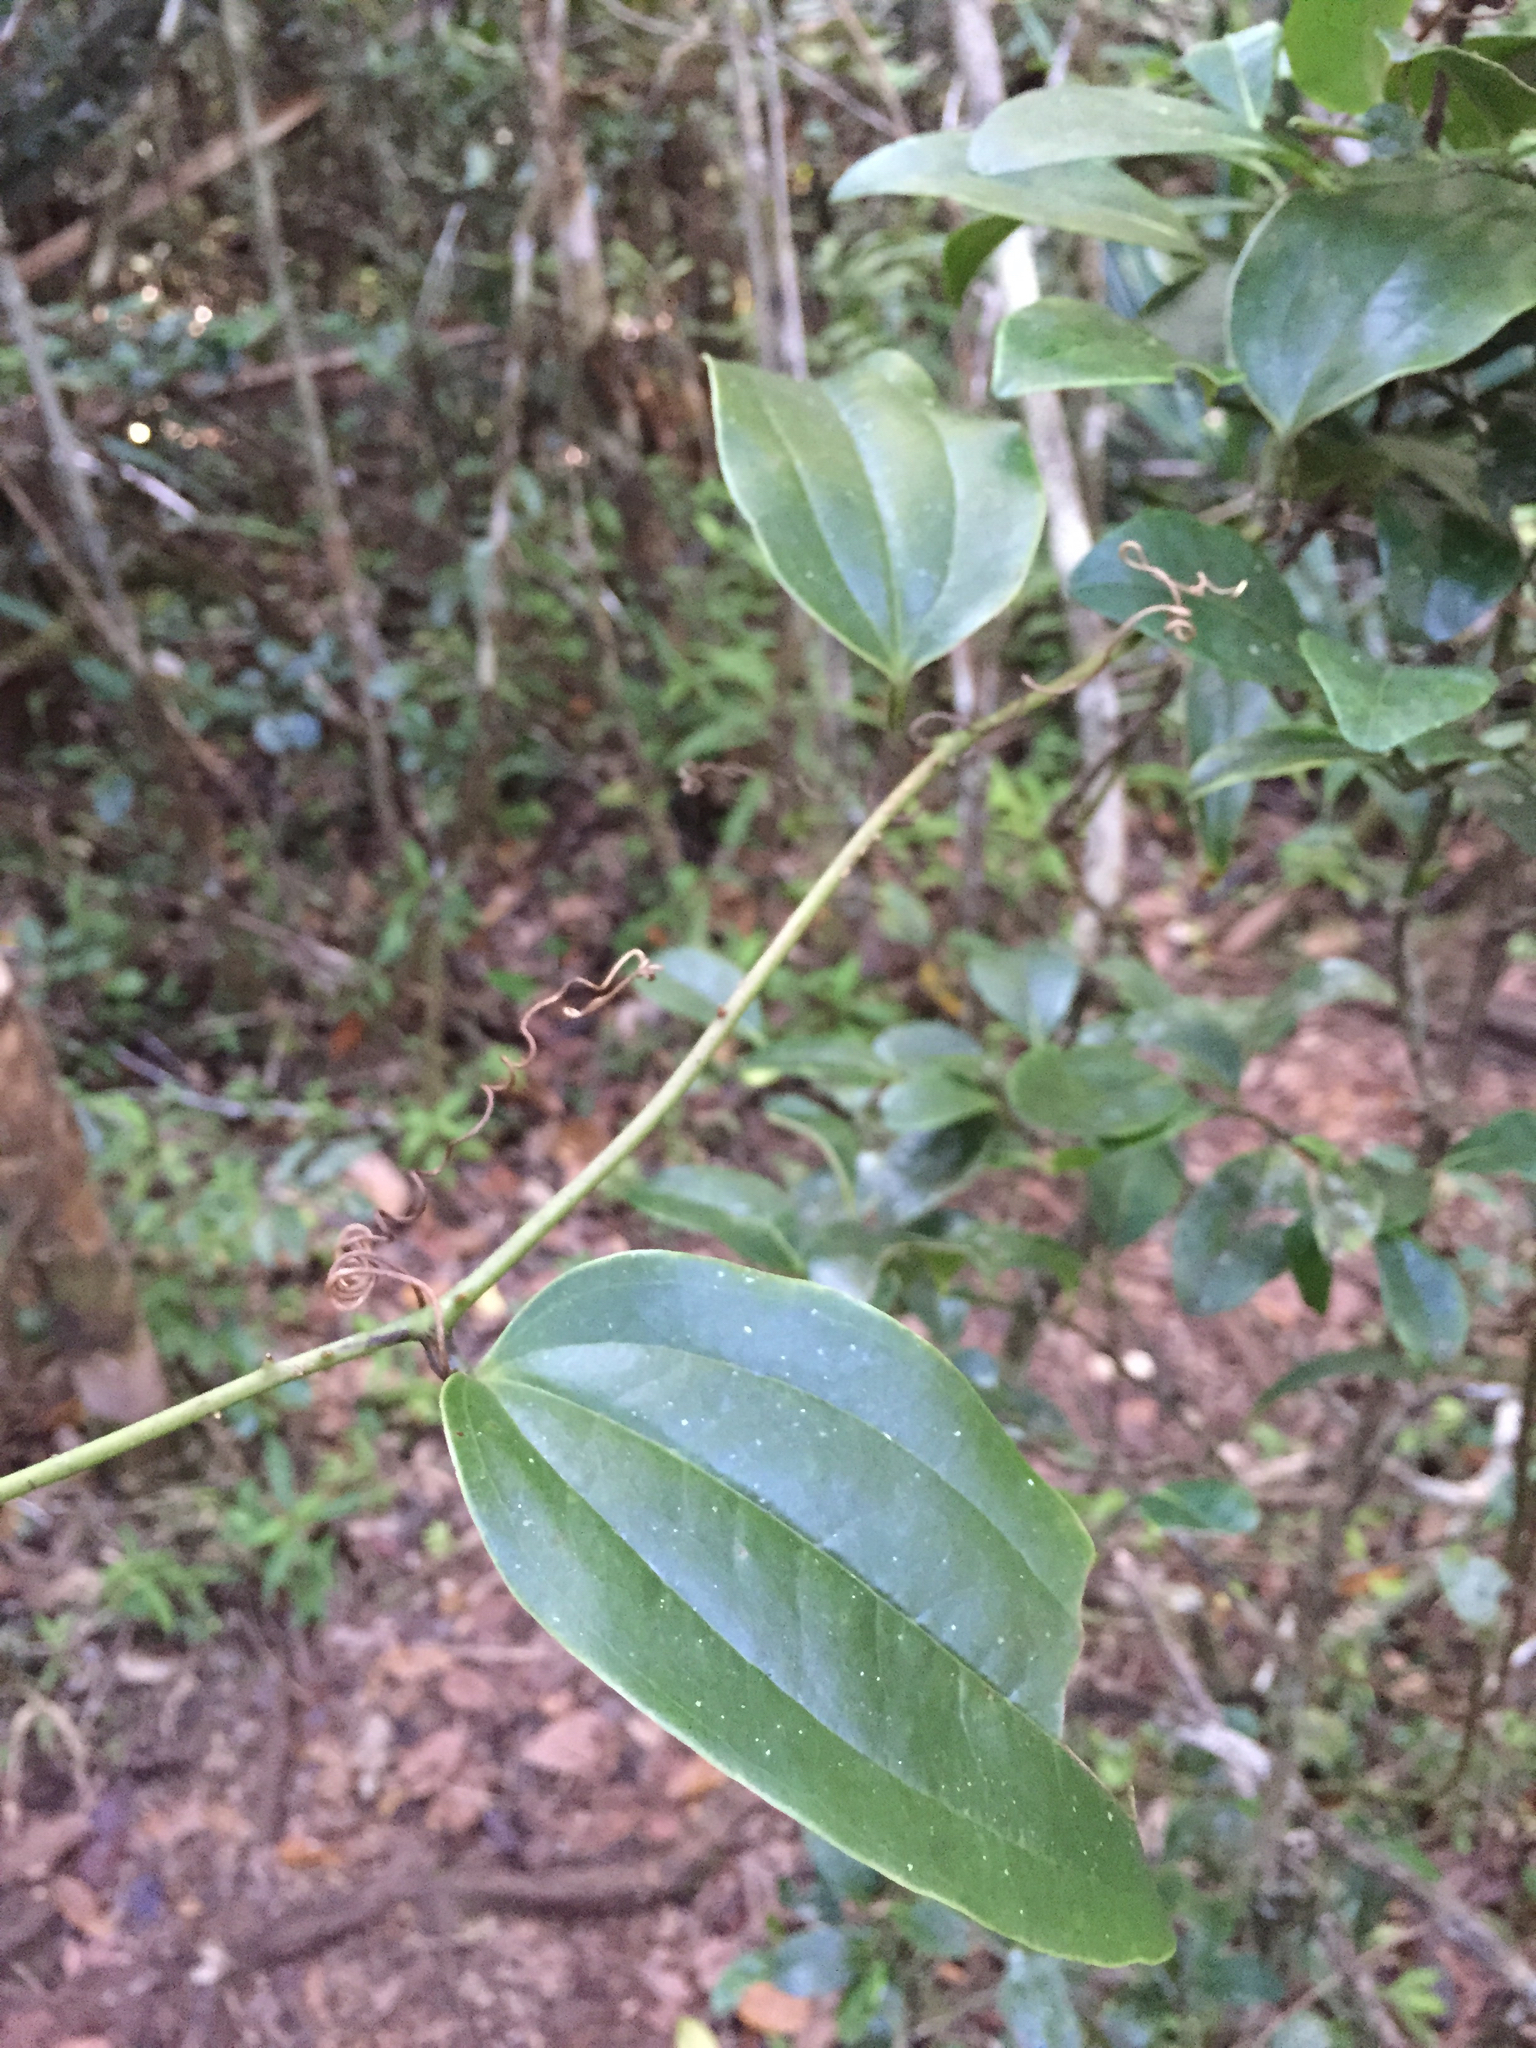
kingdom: Plantae
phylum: Tracheophyta
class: Liliopsida
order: Liliales
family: Smilacaceae
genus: Smilax
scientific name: Smilax anceps
